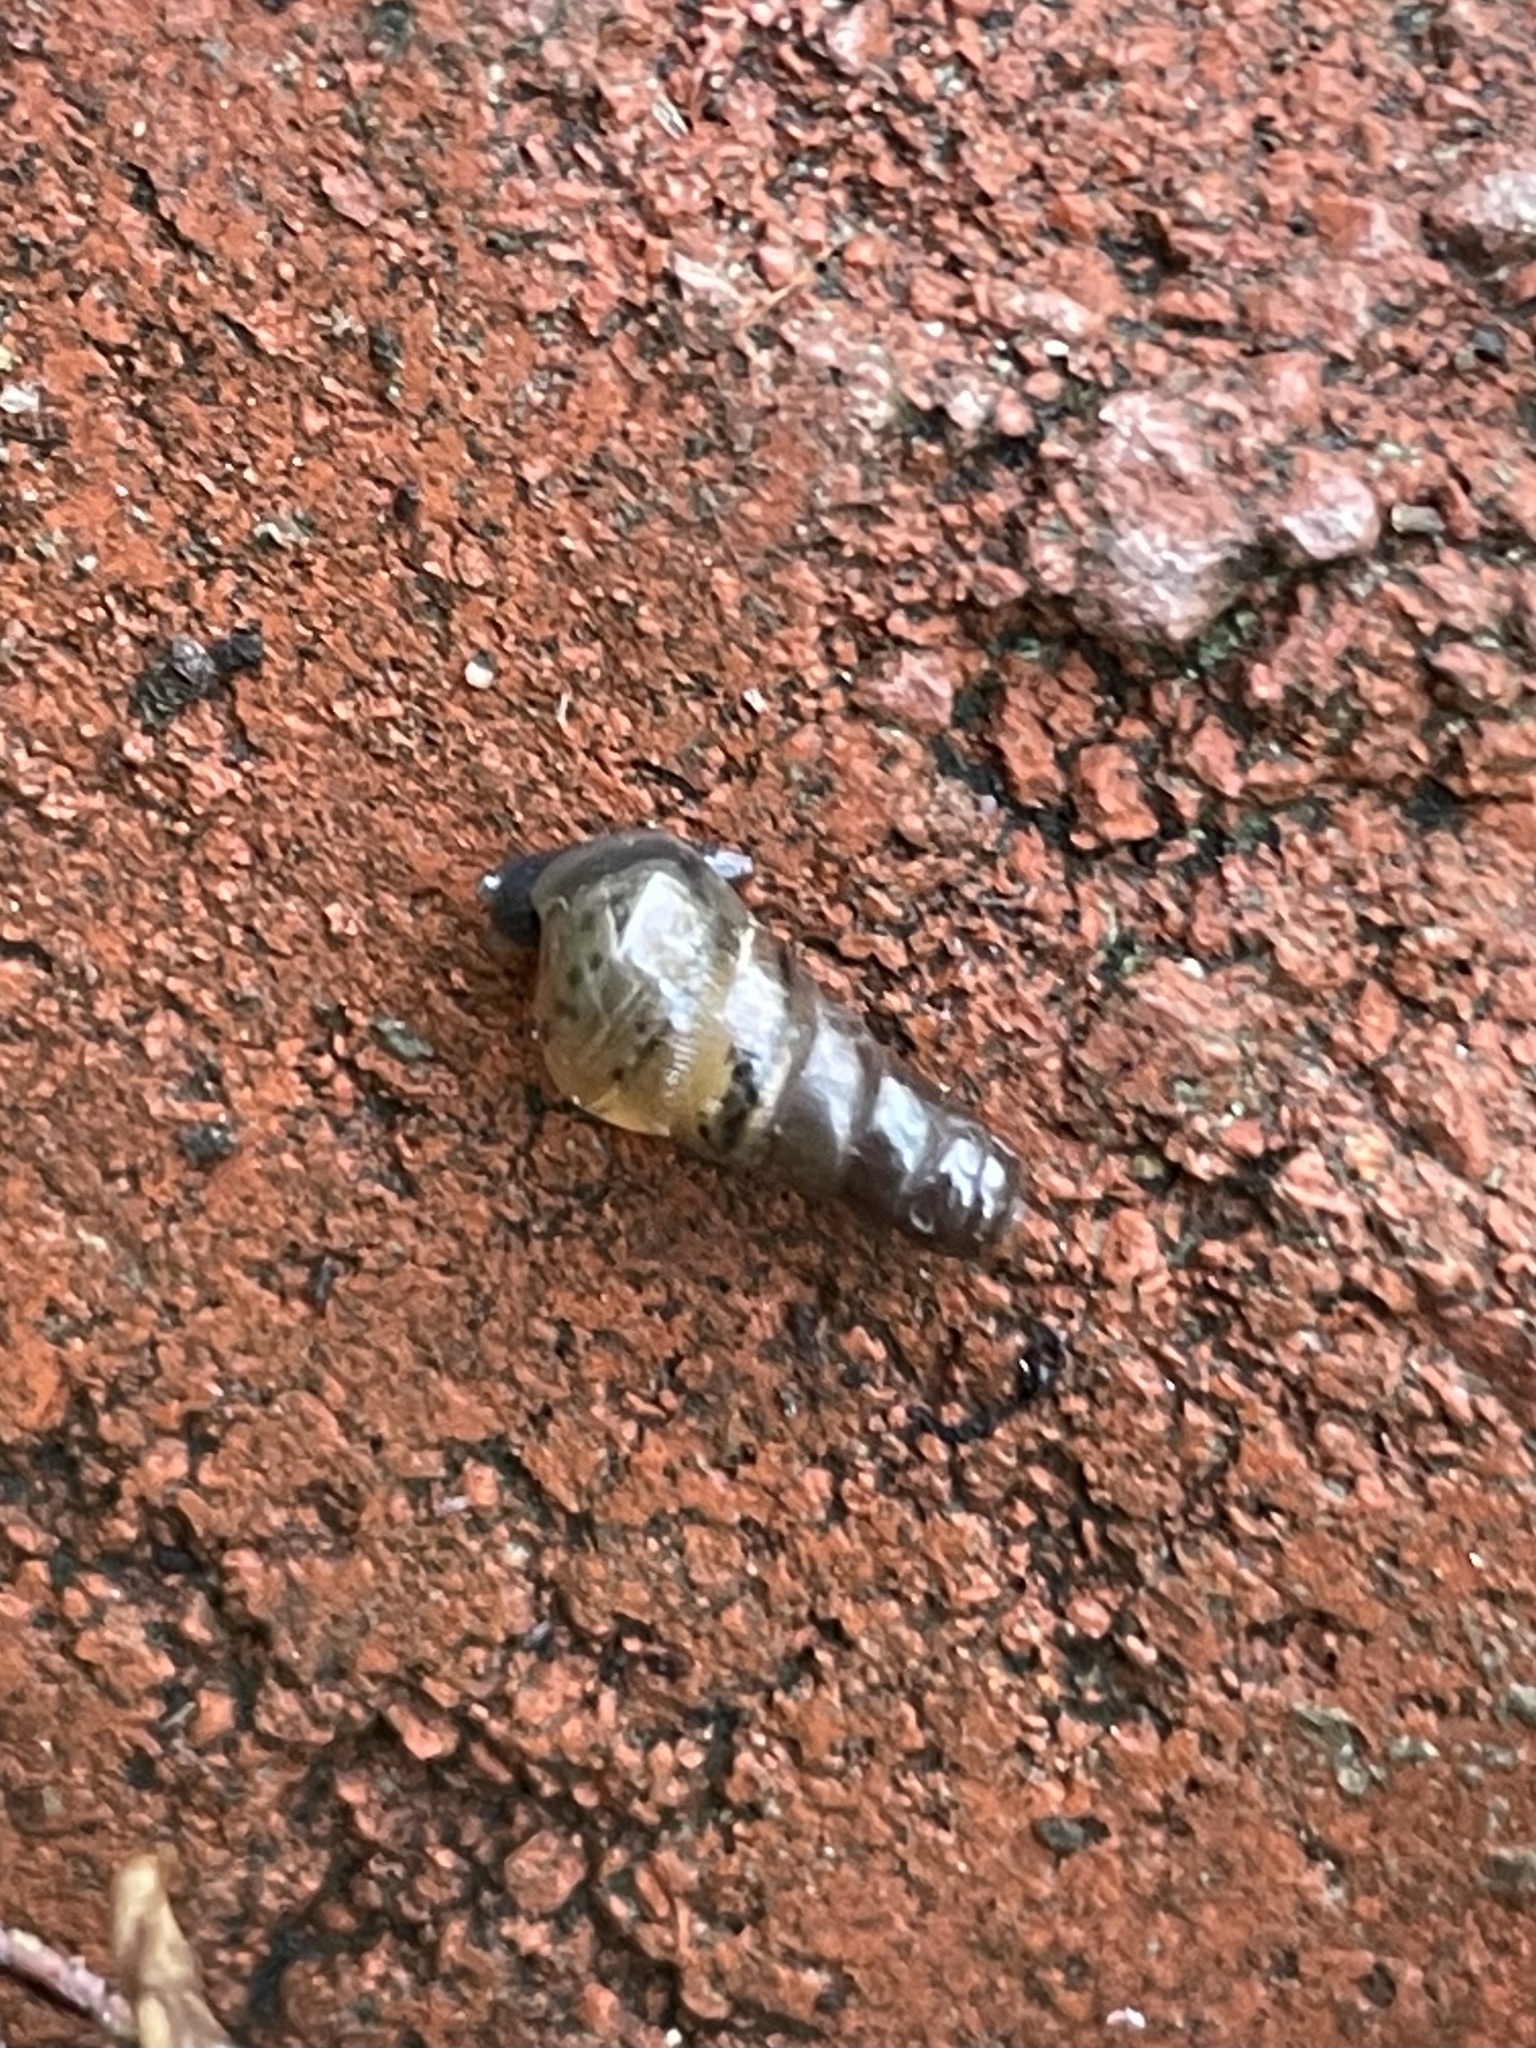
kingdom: Animalia
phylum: Mollusca
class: Gastropoda
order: Stylommatophora
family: Achatinidae
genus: Rumina
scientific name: Rumina decollata
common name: Decollate snail
